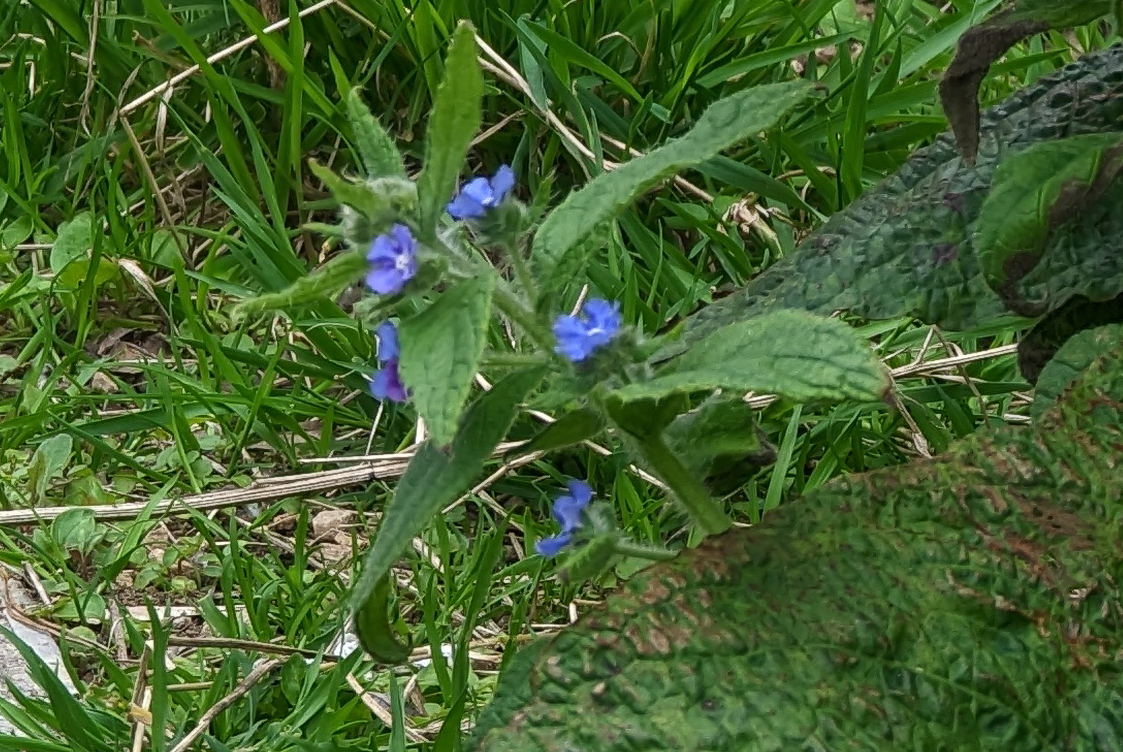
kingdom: Plantae
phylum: Tracheophyta
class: Magnoliopsida
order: Boraginales
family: Boraginaceae
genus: Pentaglottis
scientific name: Pentaglottis sempervirens
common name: Green alkanet
